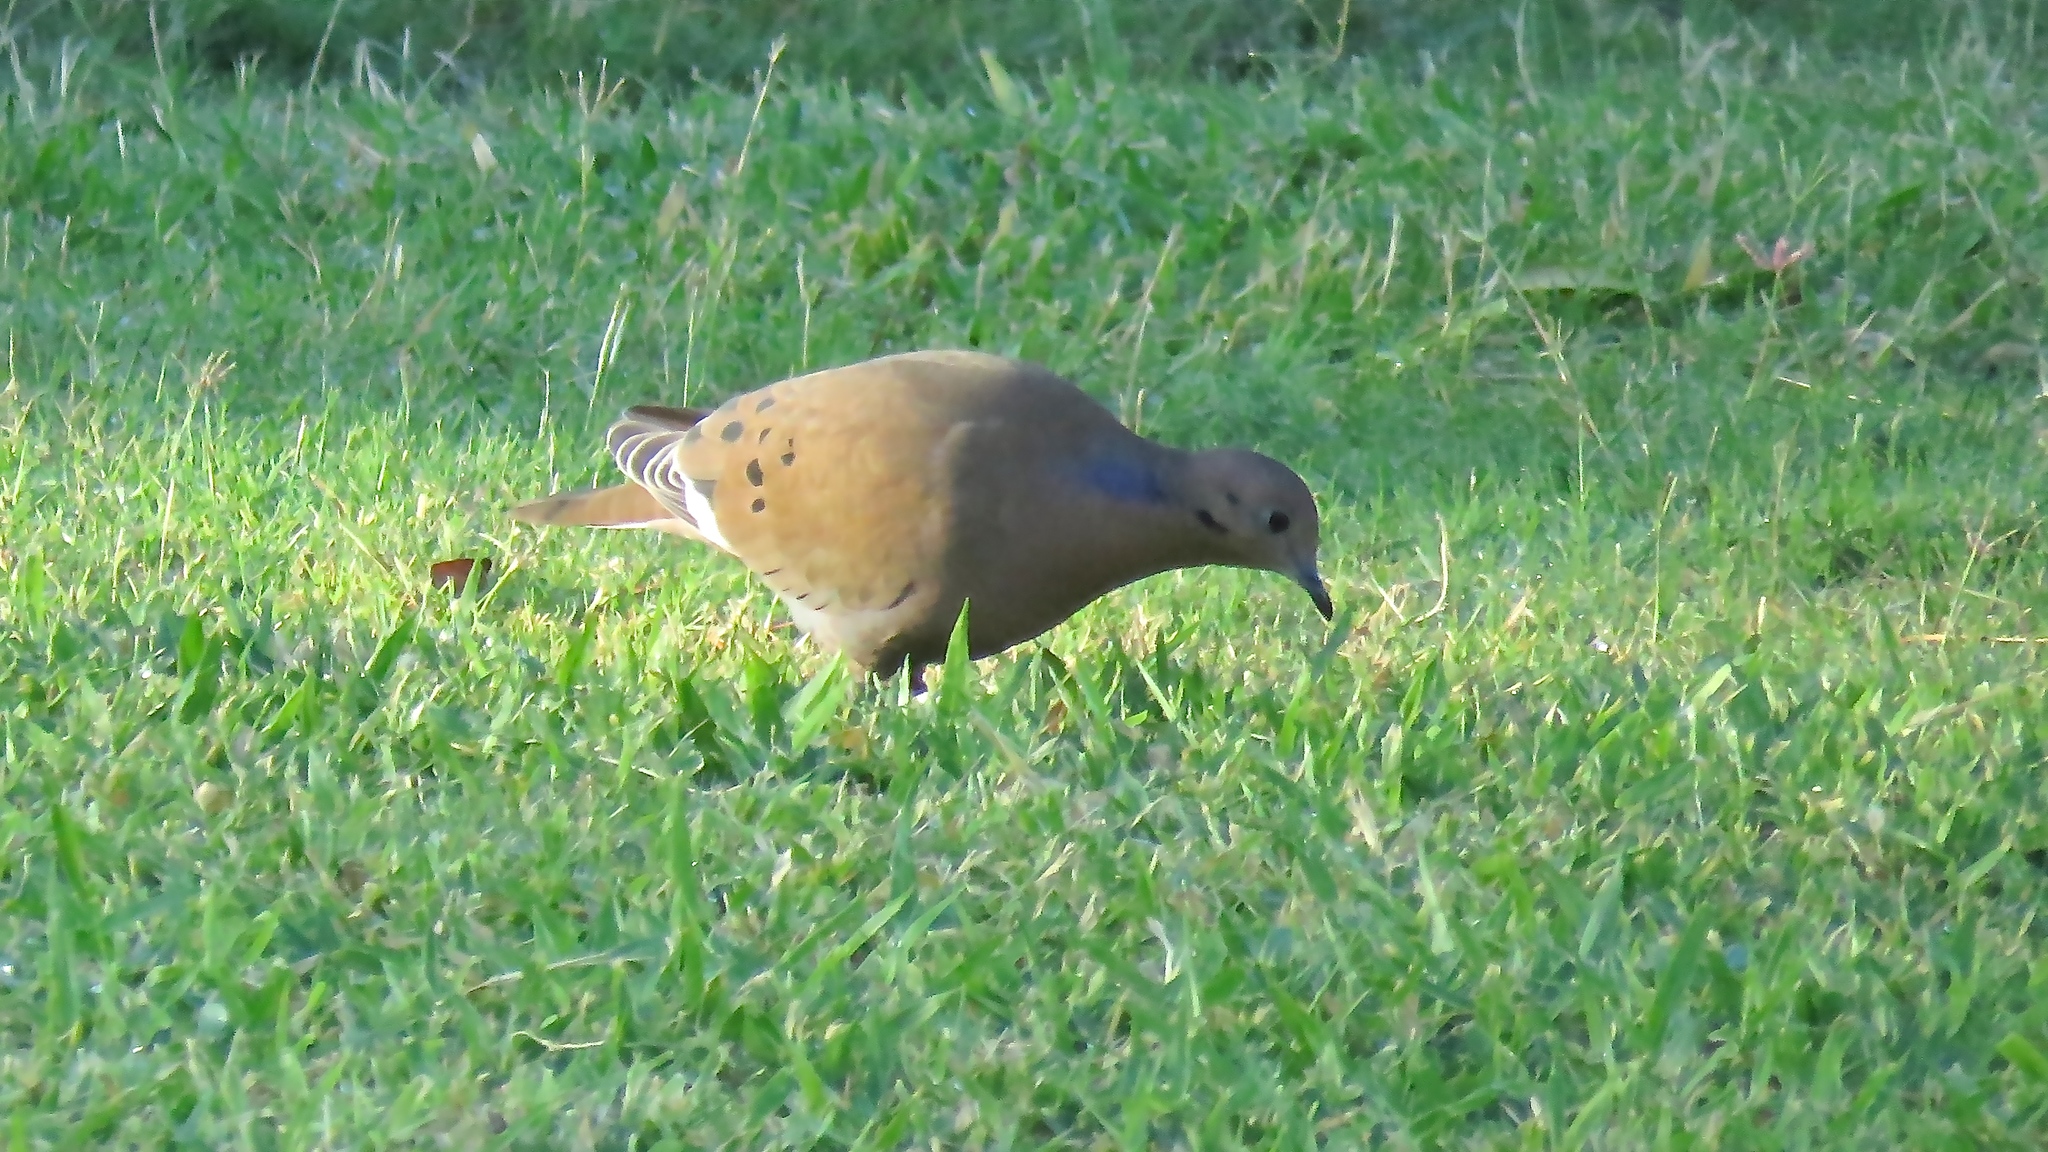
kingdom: Animalia
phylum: Chordata
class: Aves
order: Columbiformes
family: Columbidae
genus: Zenaida
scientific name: Zenaida aurita
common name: Zenaida dove
